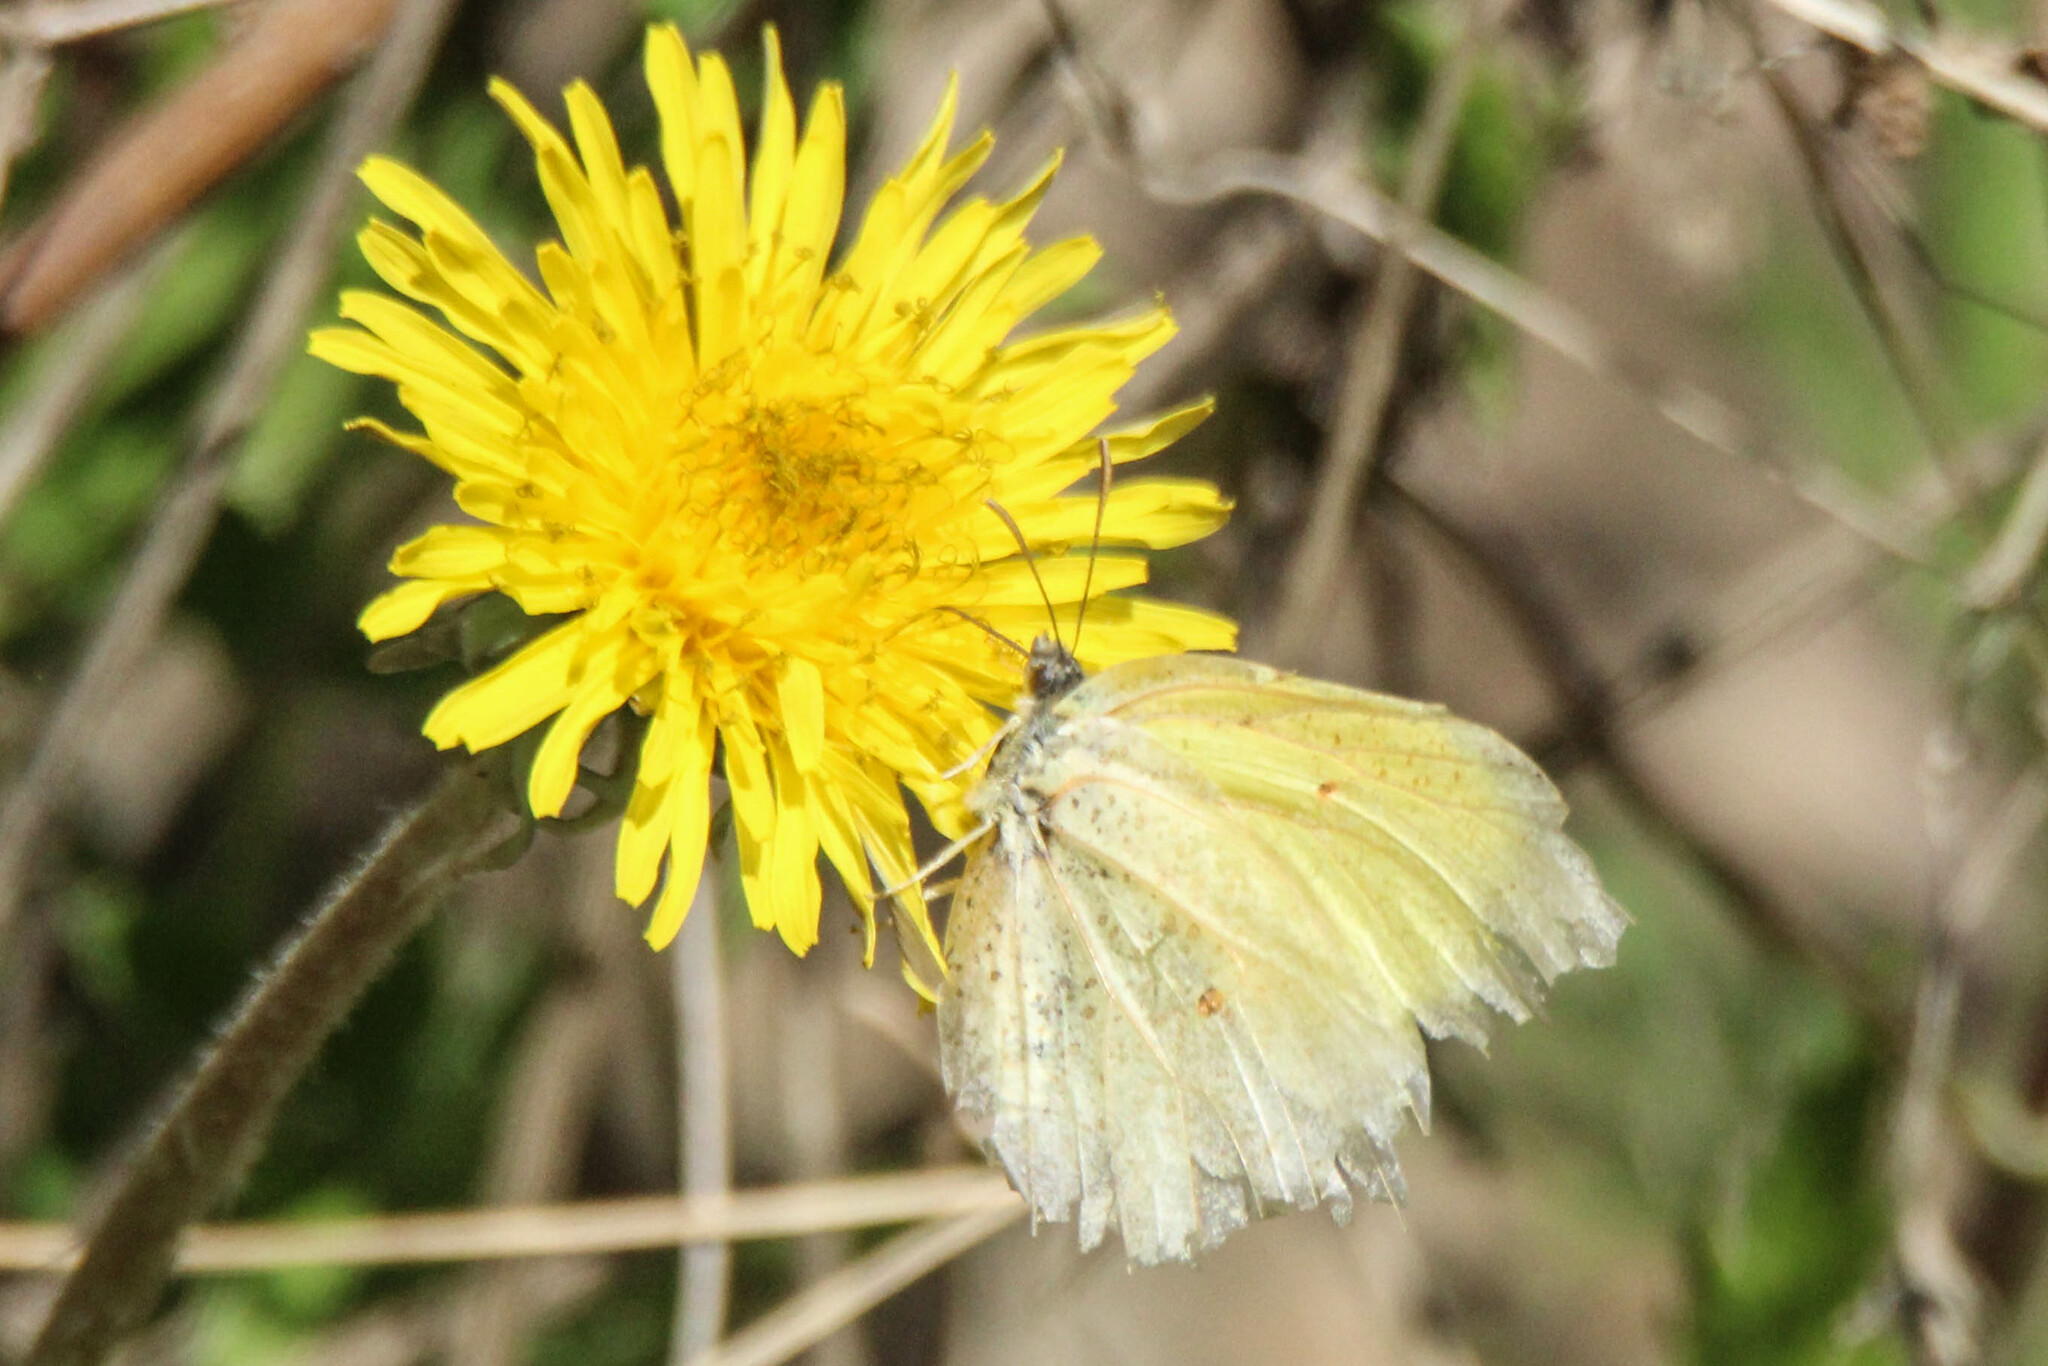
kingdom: Animalia
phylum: Arthropoda
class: Insecta
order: Lepidoptera
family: Pieridae
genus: Gonepteryx
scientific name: Gonepteryx aspasia
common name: Lesser brimstone
